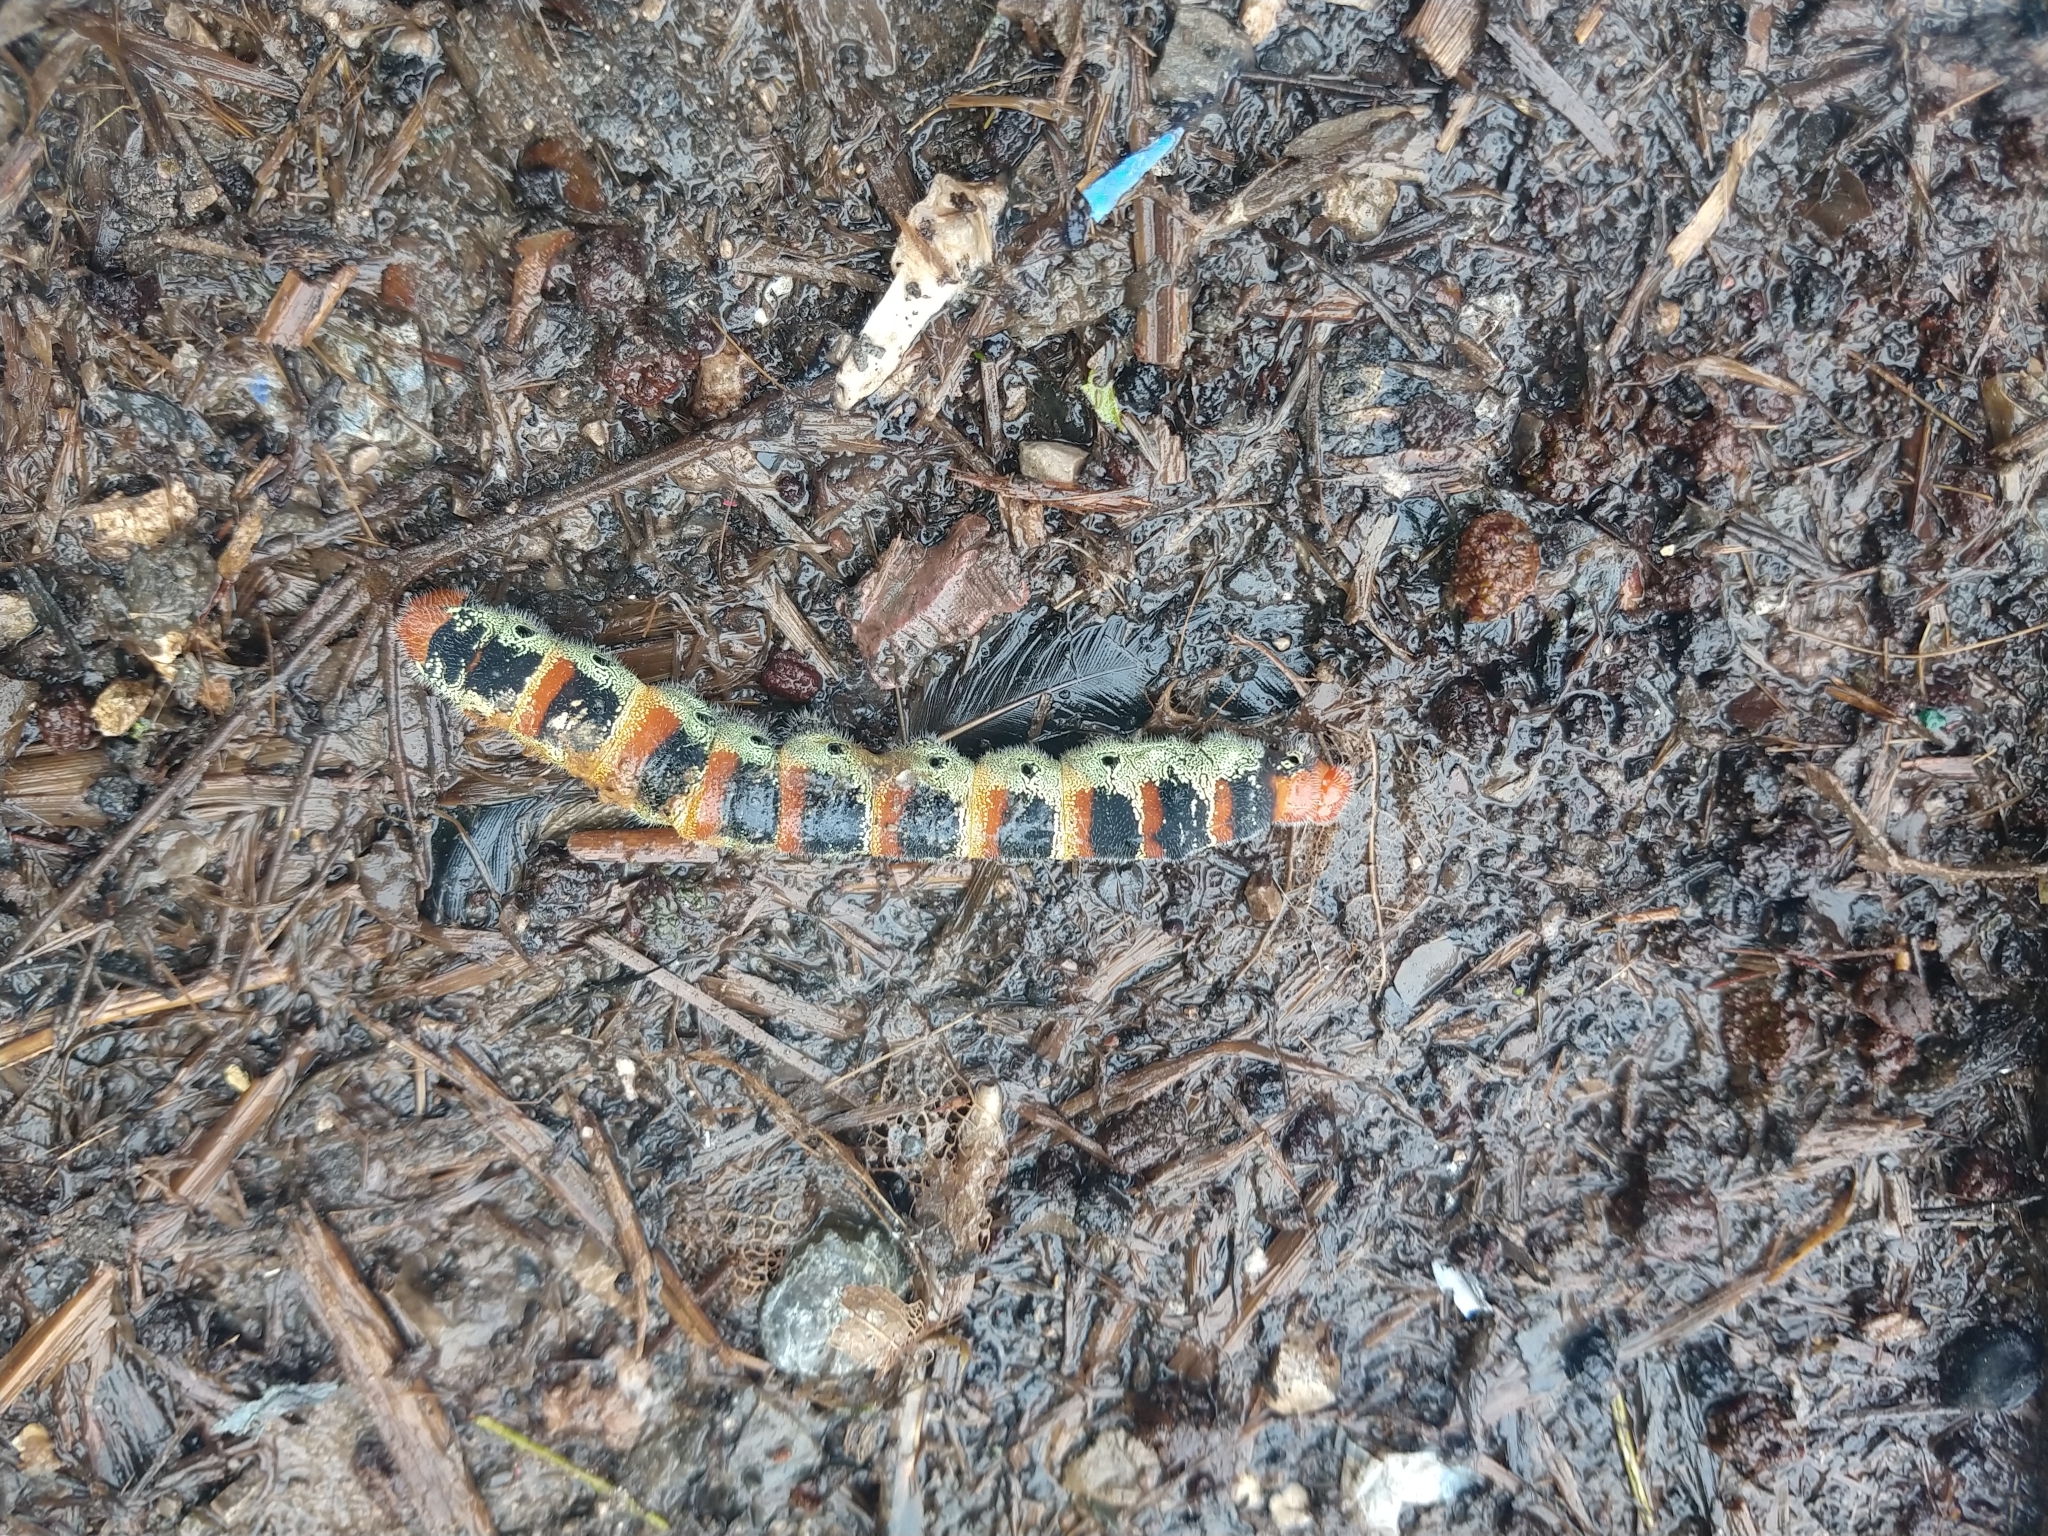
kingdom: Animalia
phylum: Arthropoda
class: Insecta
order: Lepidoptera
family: Saturniidae
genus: Arsenura
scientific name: Arsenura armida
